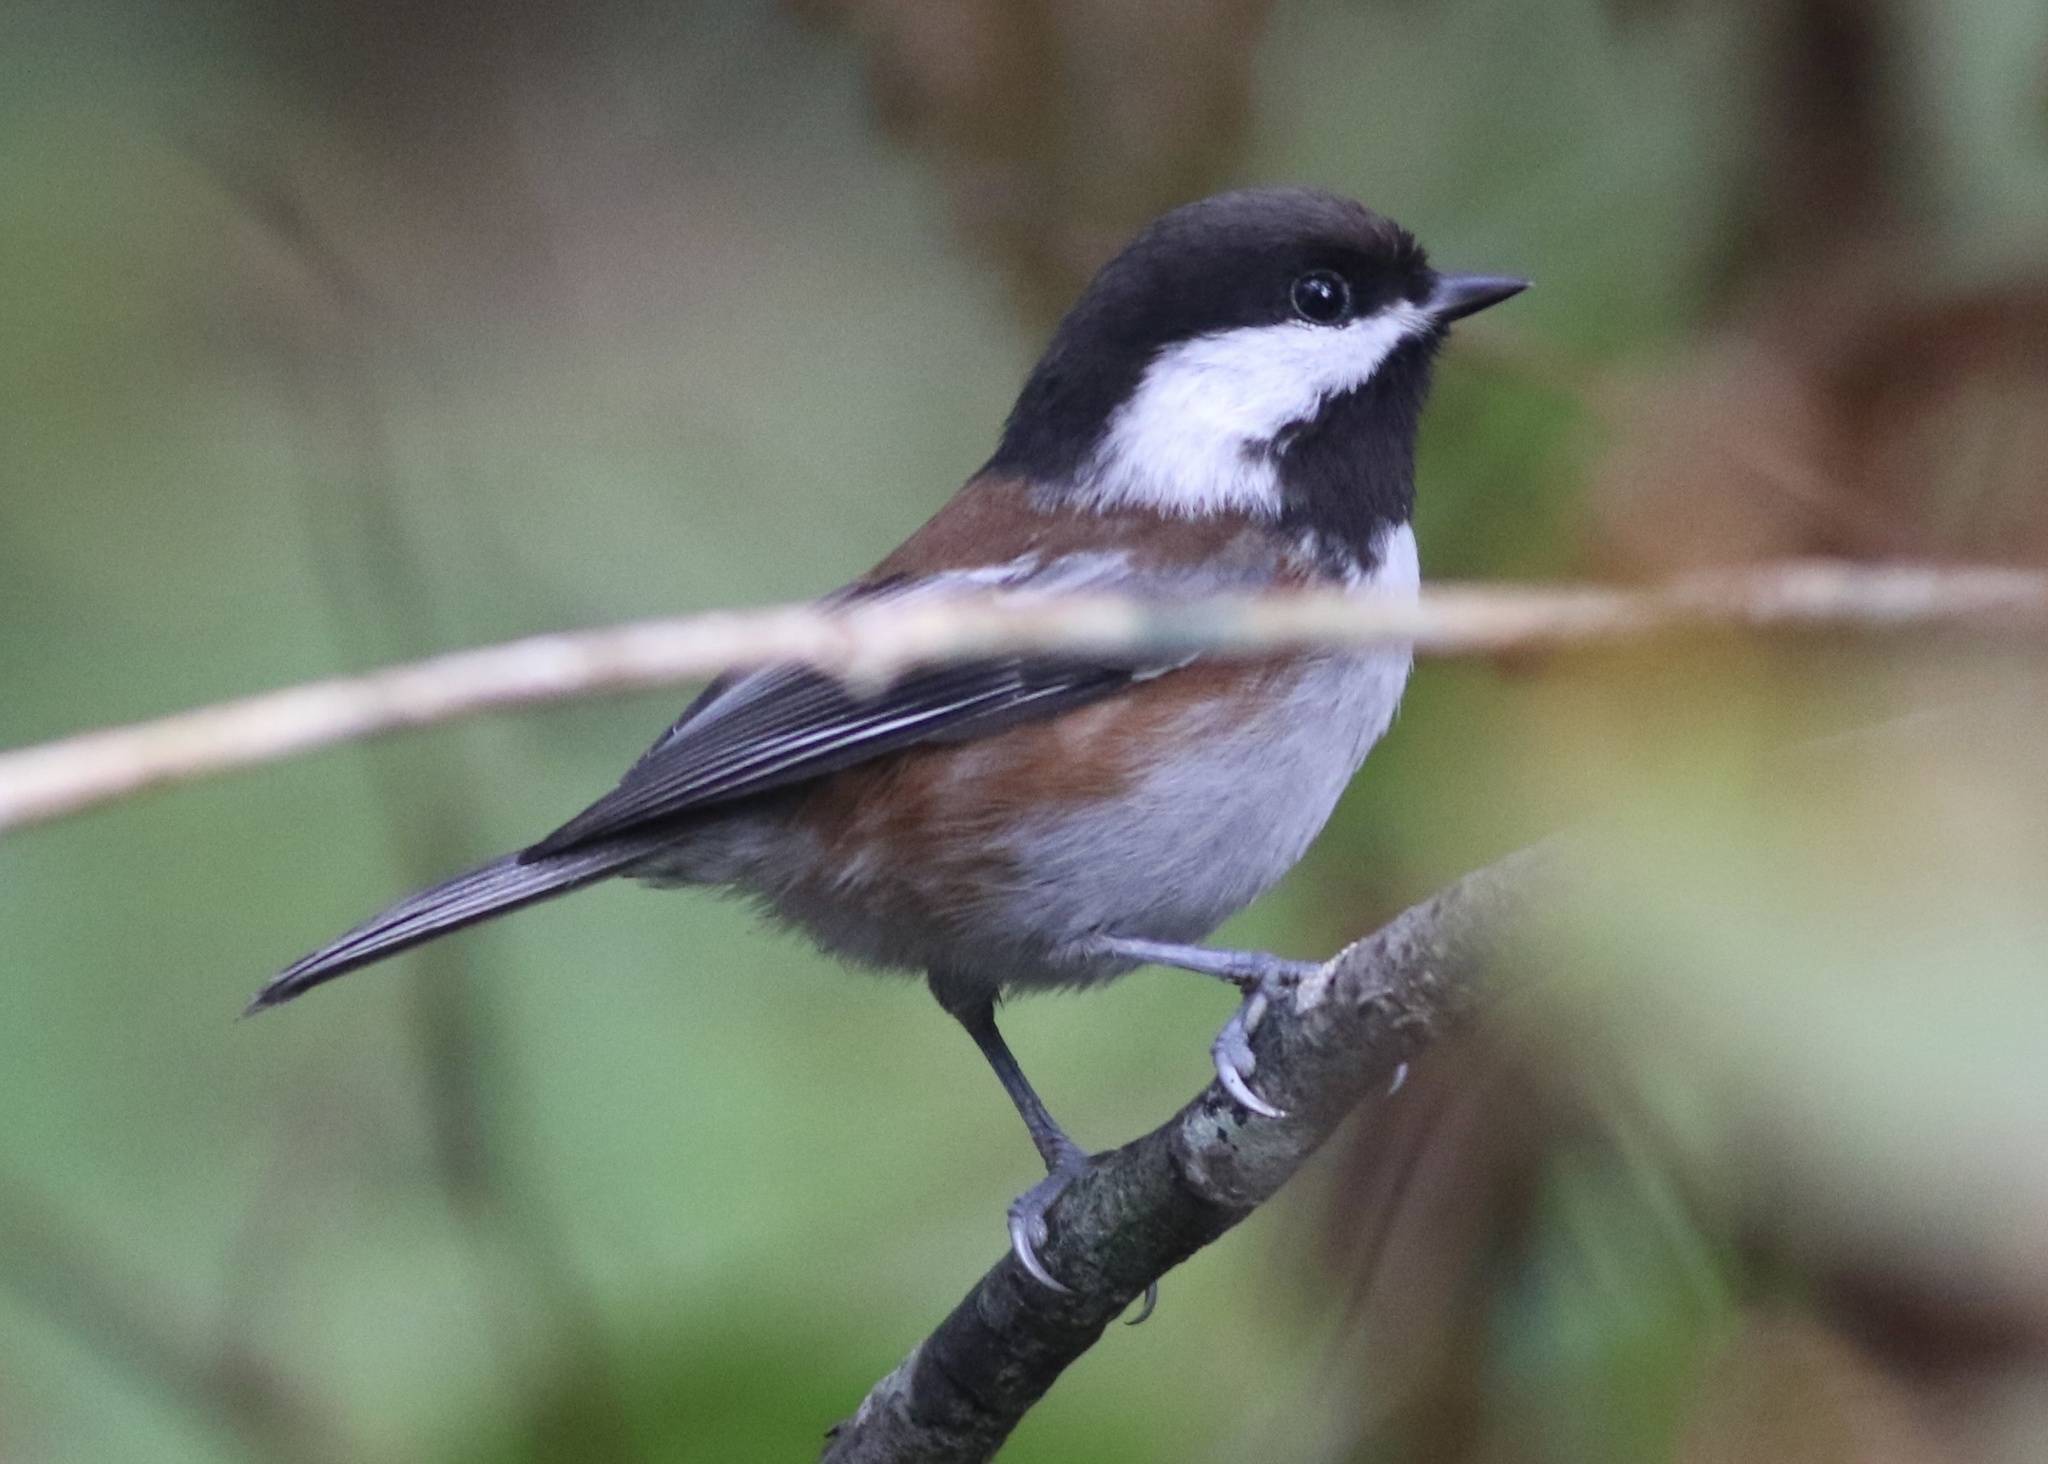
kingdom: Animalia
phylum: Chordata
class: Aves
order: Passeriformes
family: Paridae
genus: Poecile
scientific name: Poecile rufescens
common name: Chestnut-backed chickadee
